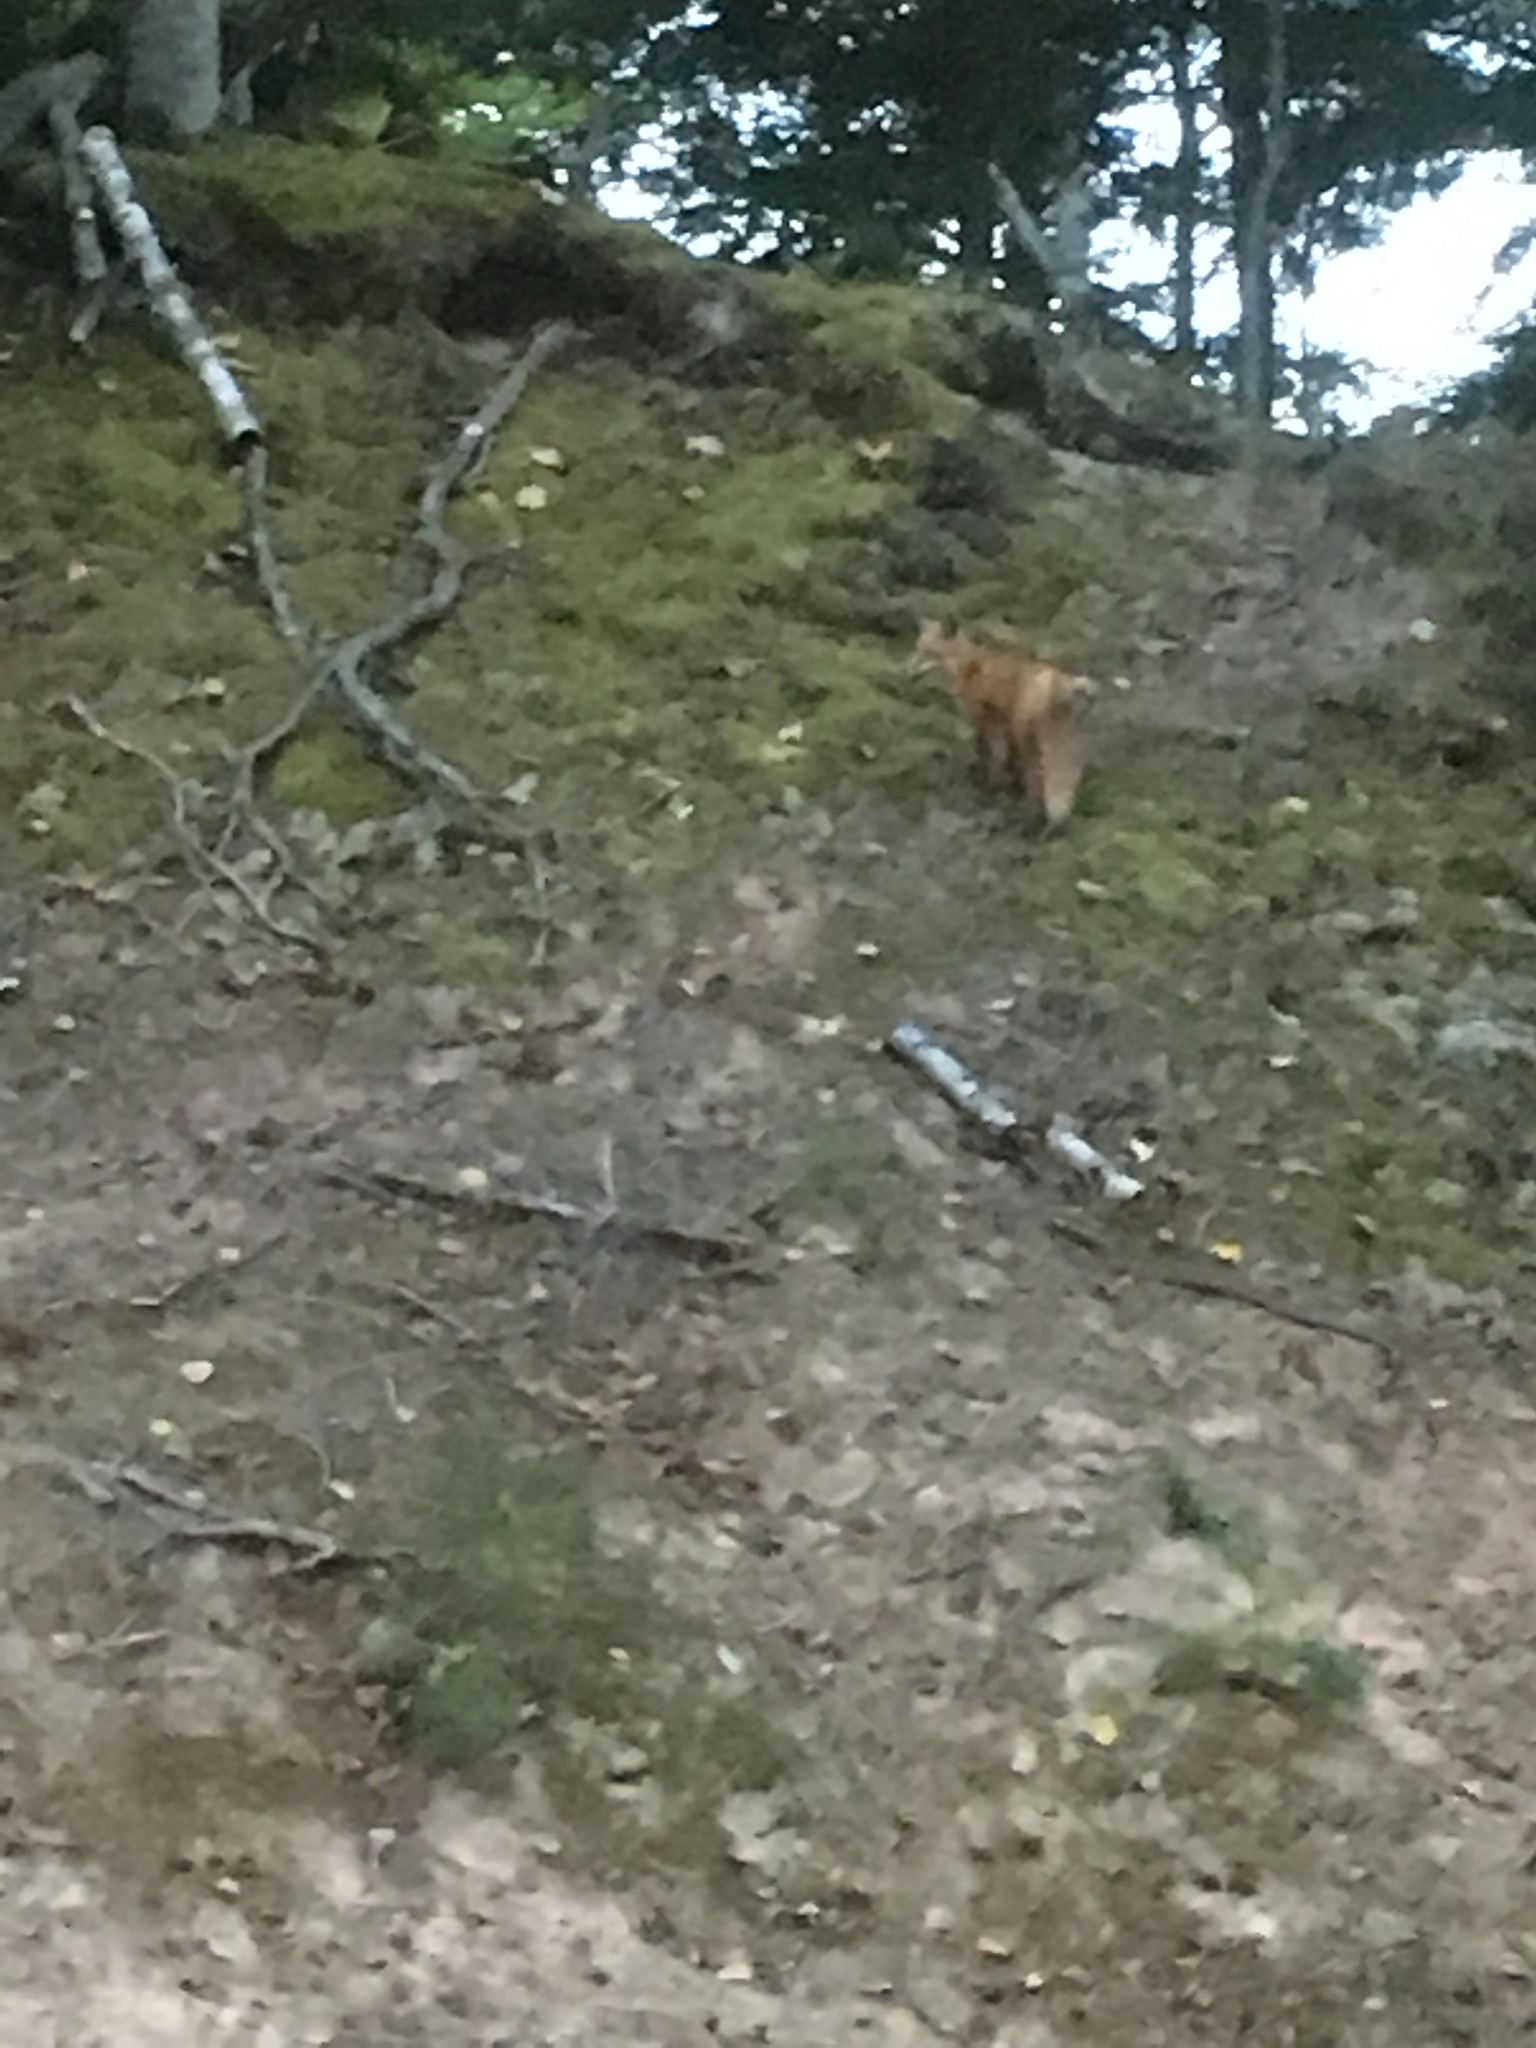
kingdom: Animalia
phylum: Chordata
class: Mammalia
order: Carnivora
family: Canidae
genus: Vulpes
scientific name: Vulpes vulpes
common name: Red fox
